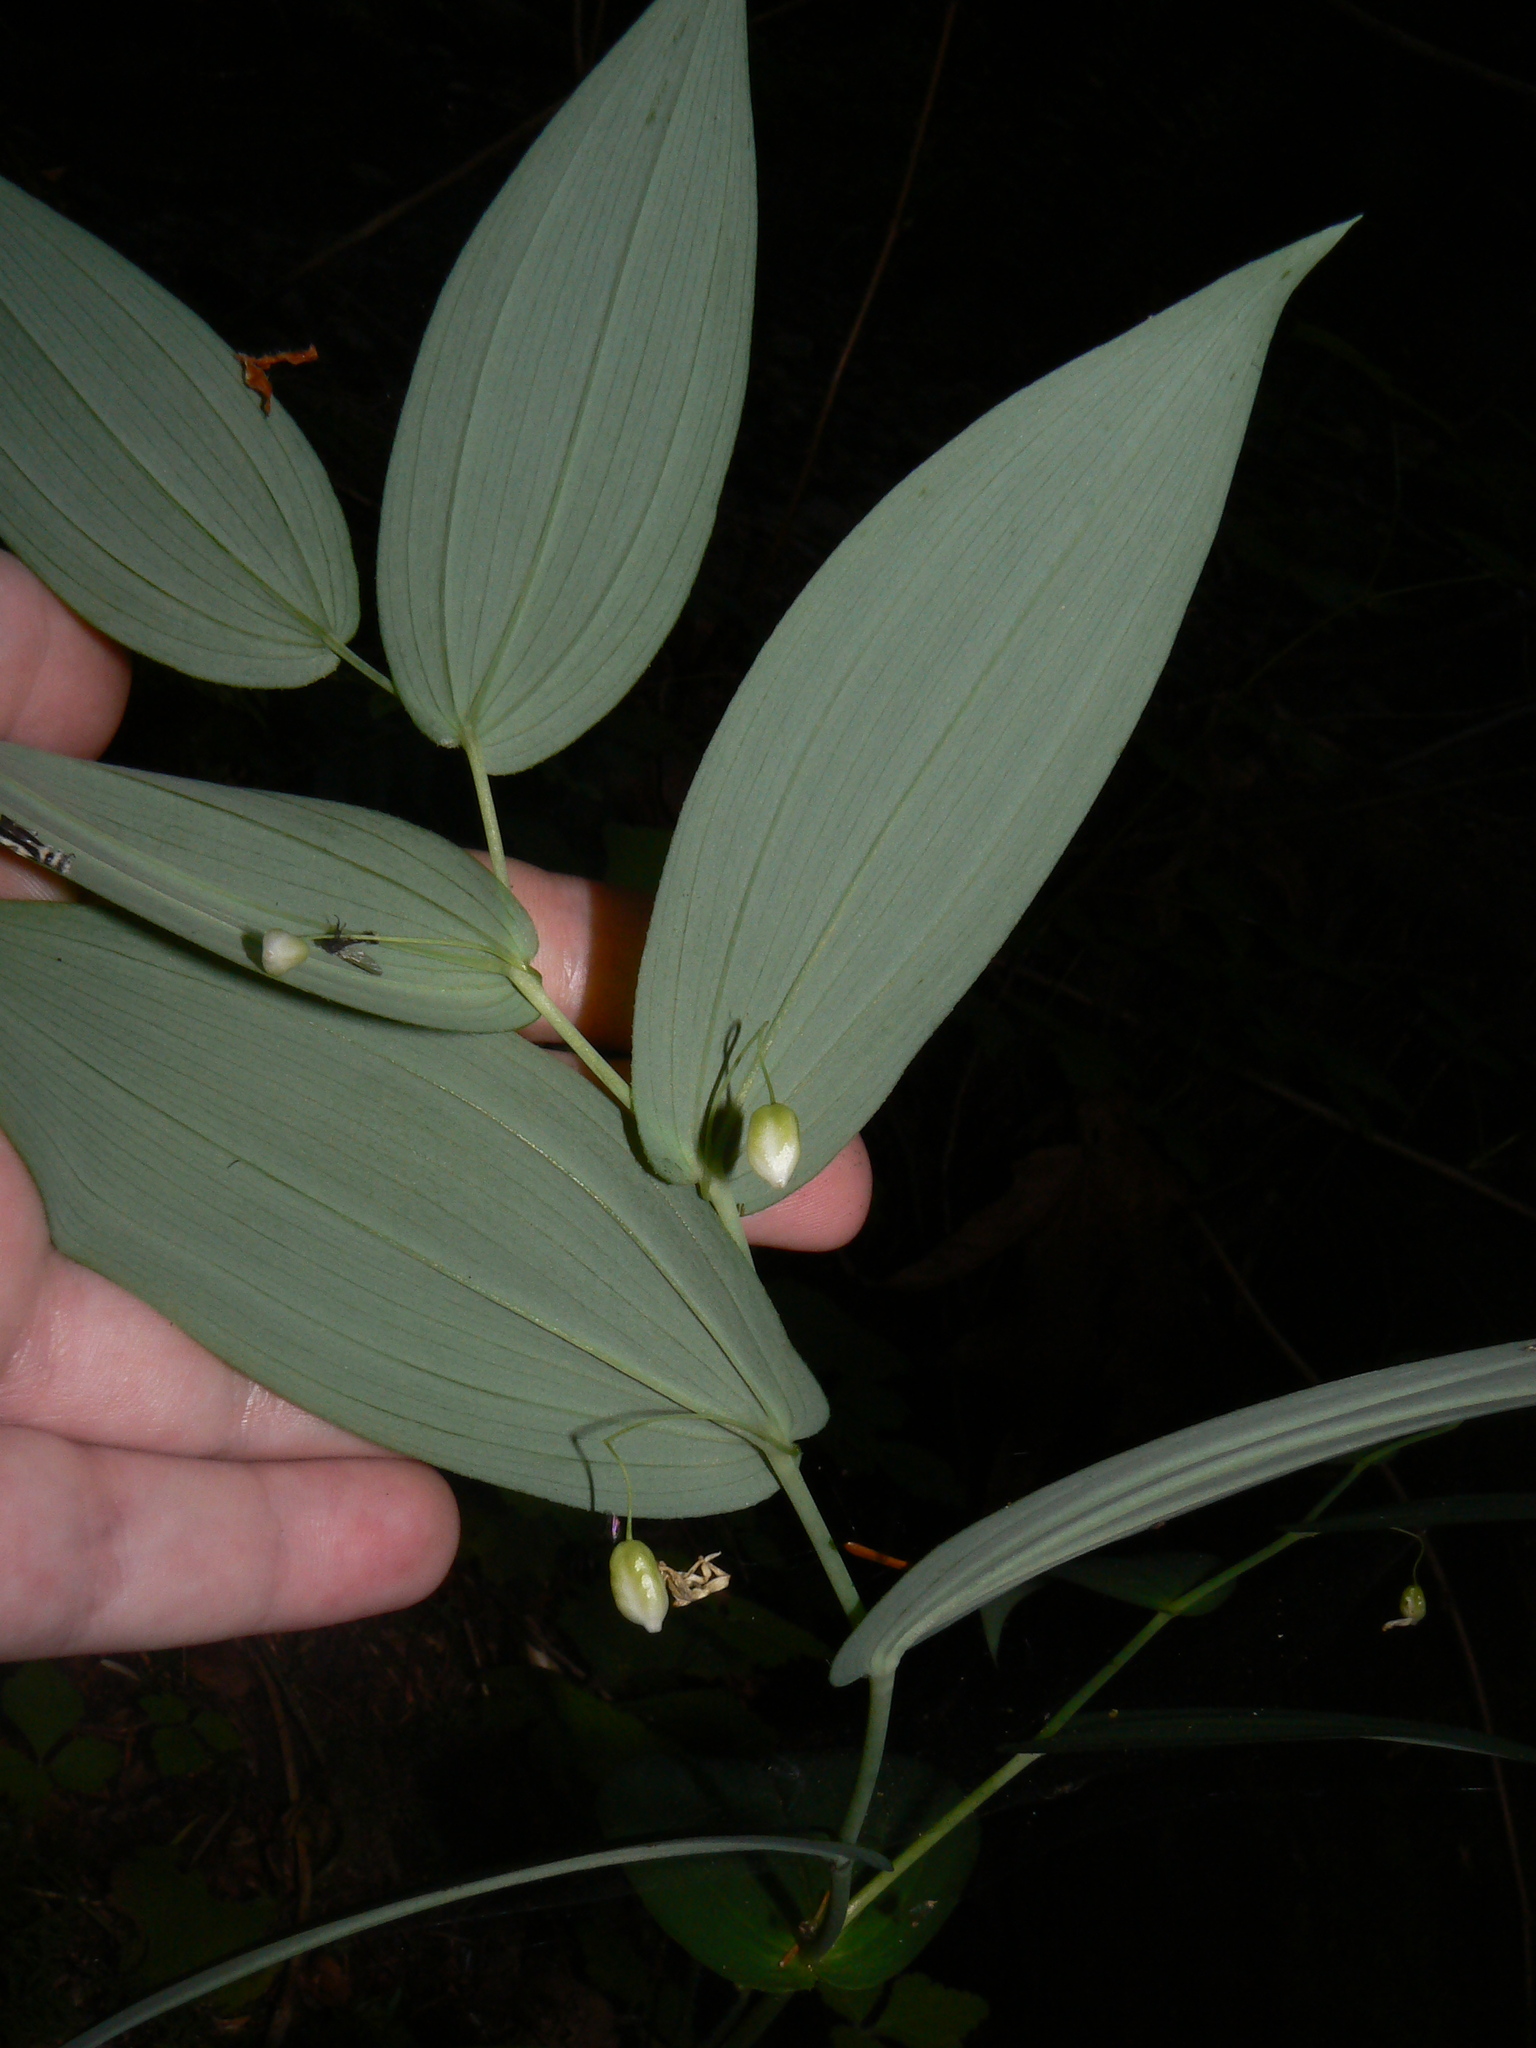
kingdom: Plantae
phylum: Tracheophyta
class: Liliopsida
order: Liliales
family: Liliaceae
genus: Streptopus
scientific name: Streptopus amplexifolius
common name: Clasp twisted stalk
